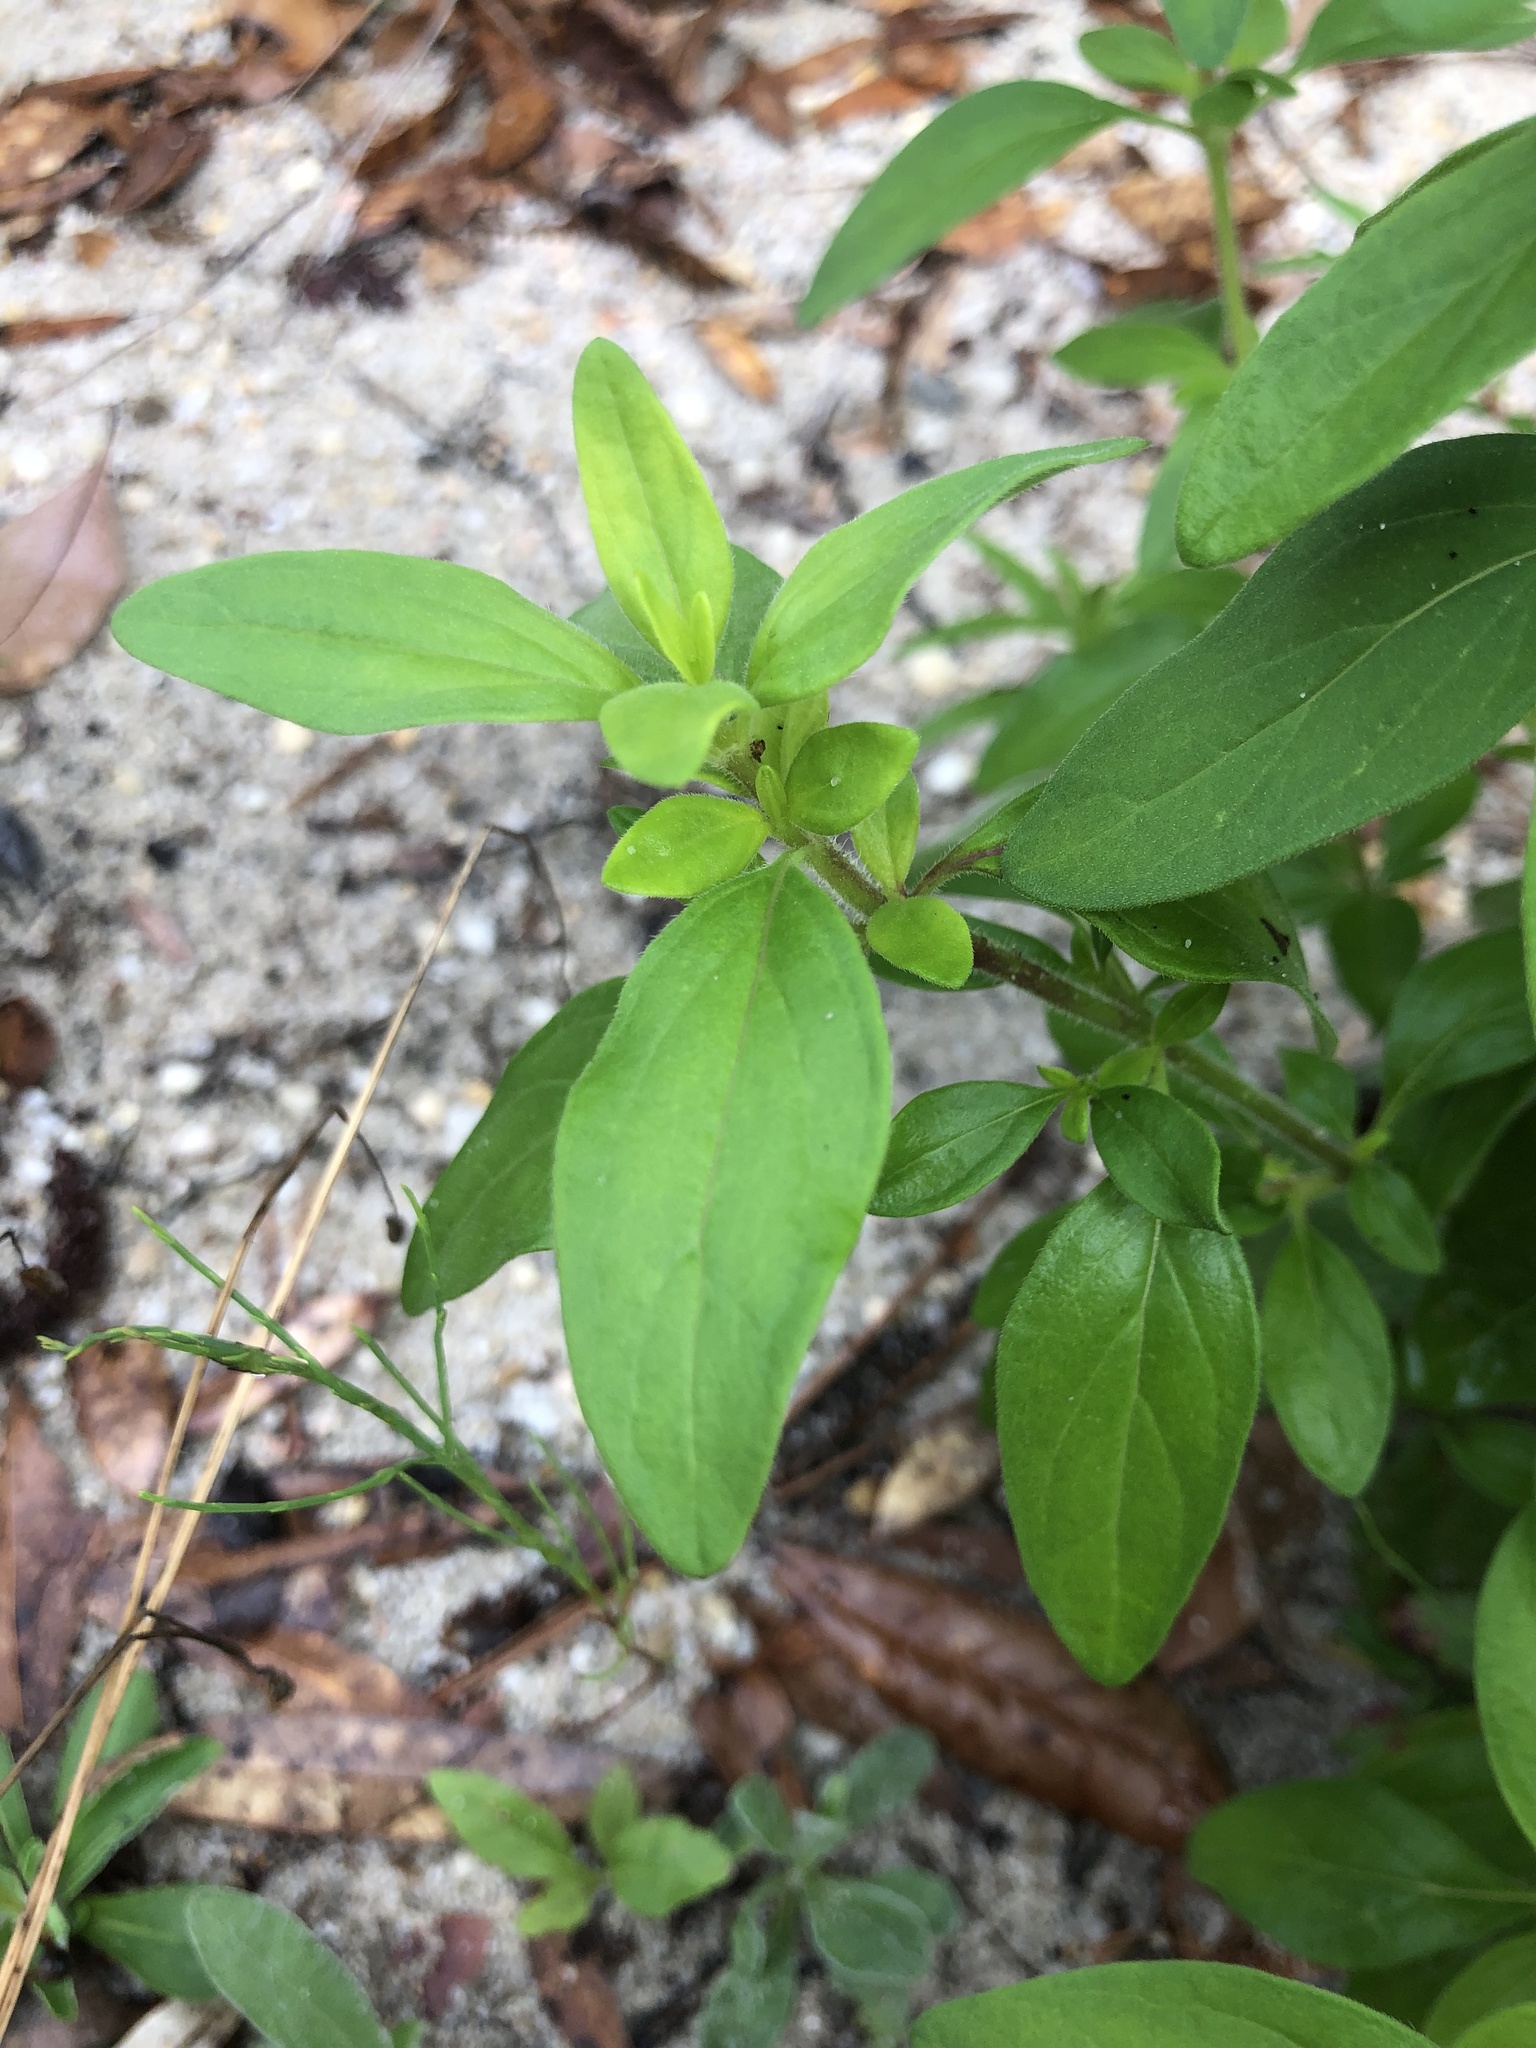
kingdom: Plantae
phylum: Tracheophyta
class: Magnoliopsida
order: Lamiales
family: Lamiaceae
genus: Trichostema
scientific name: Trichostema dichotomum
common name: Bastard pennyroyal
